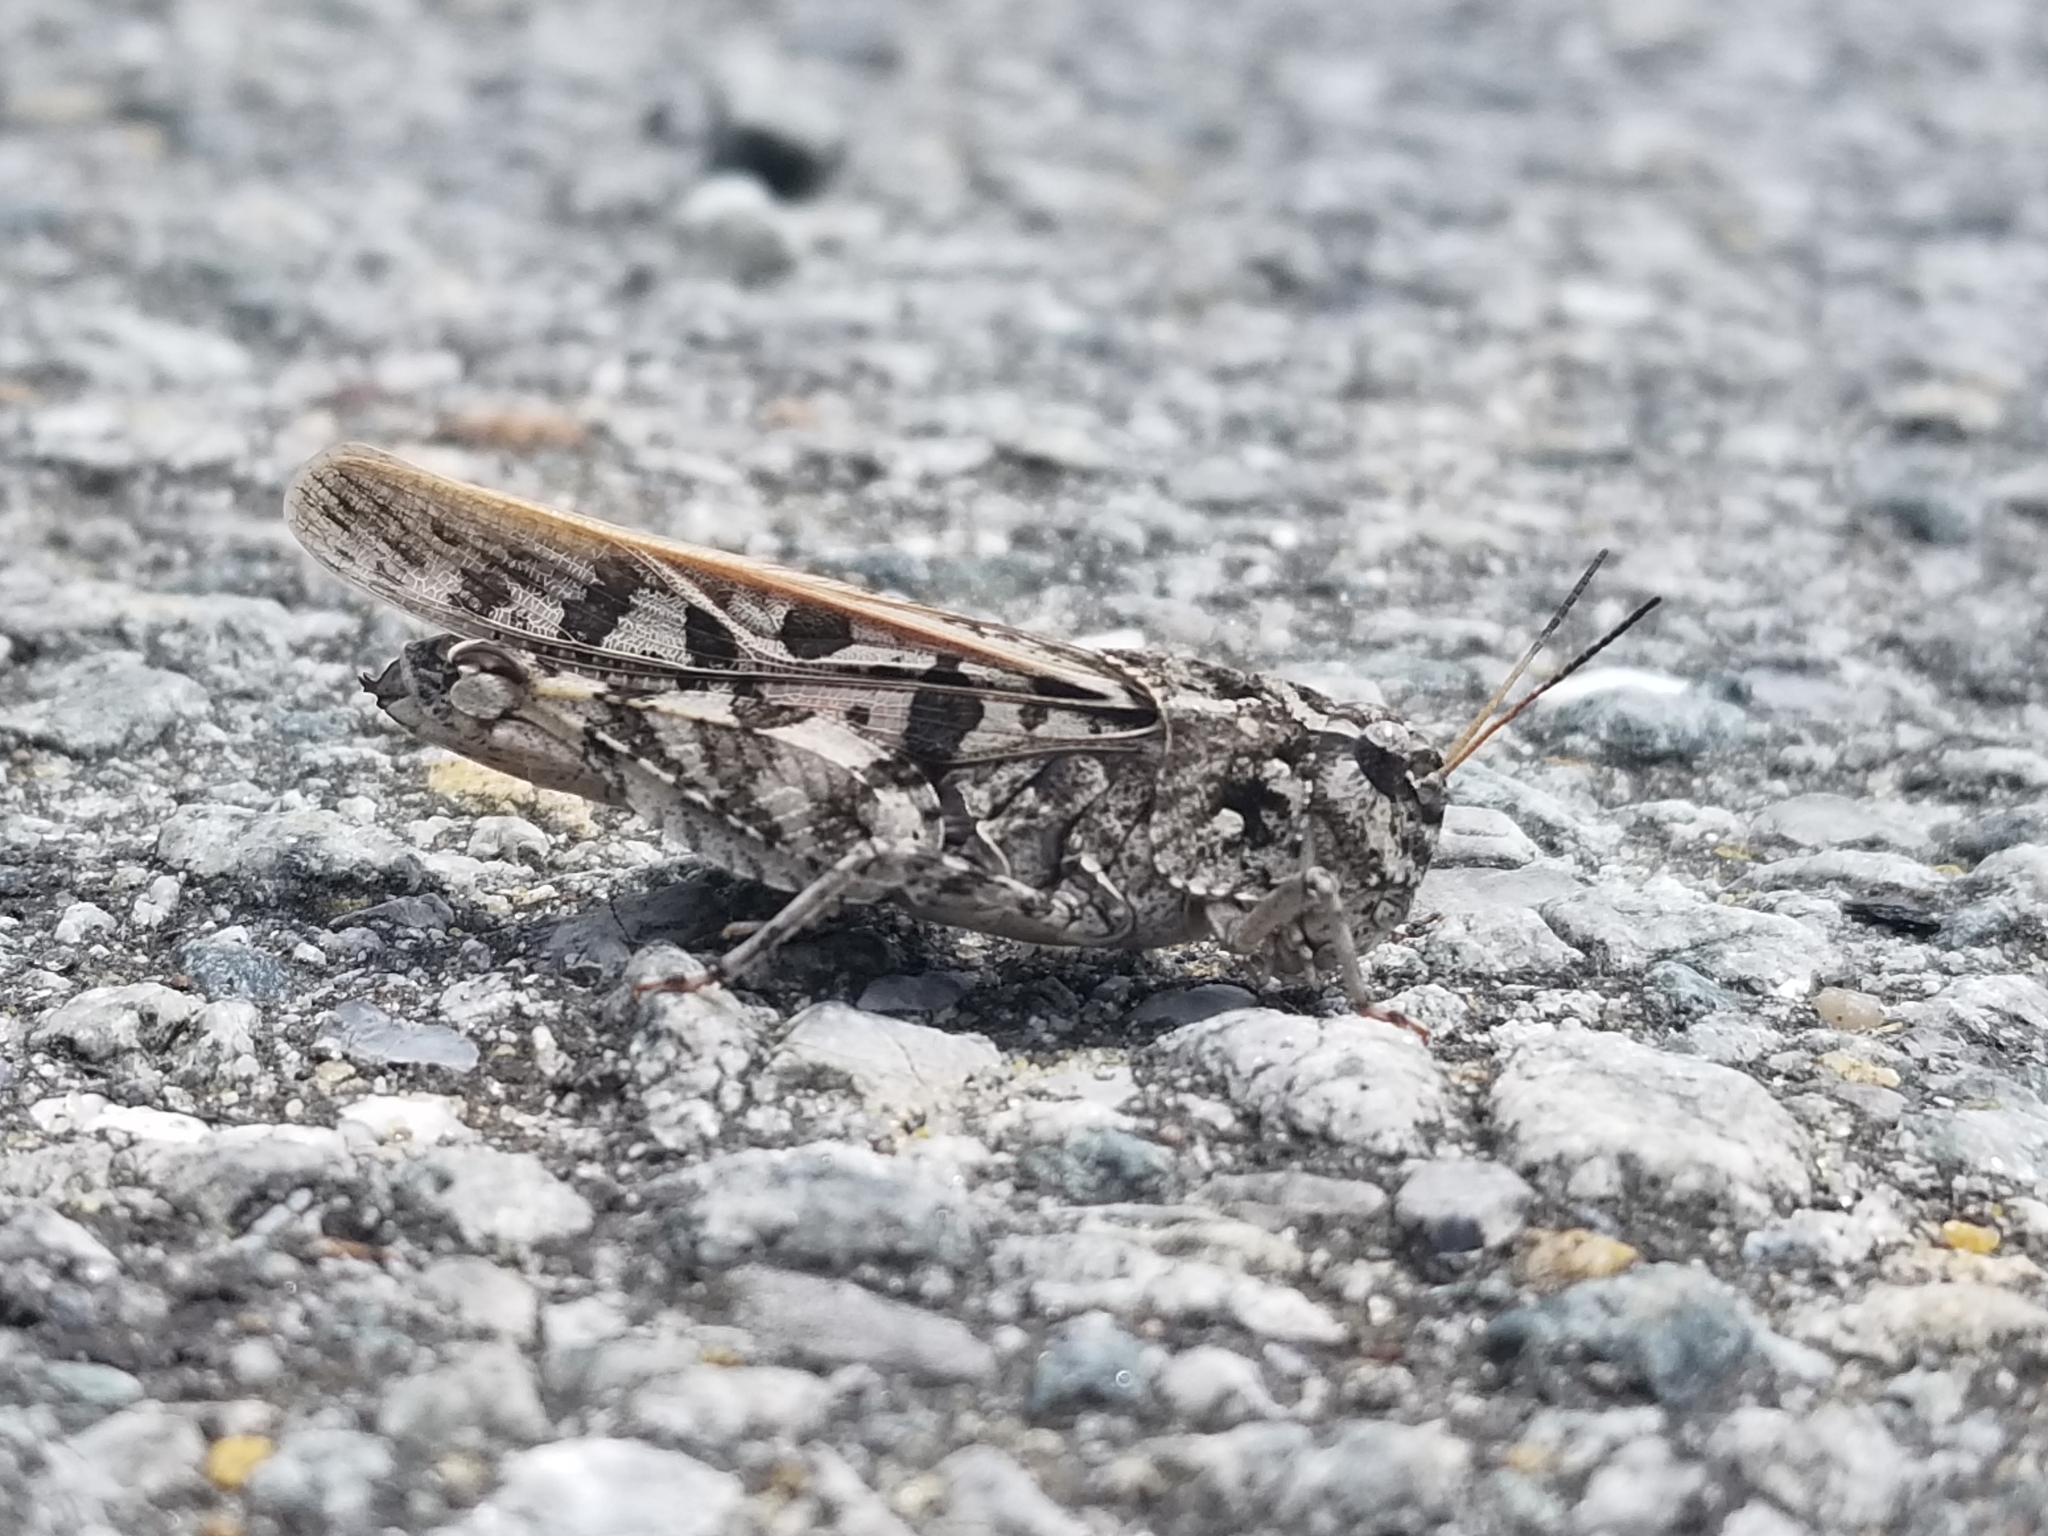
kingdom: Animalia
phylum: Arthropoda
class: Insecta
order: Orthoptera
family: Acrididae
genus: Pardalophora
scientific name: Pardalophora phoenicoptera
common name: Orange-winged grasshopper
